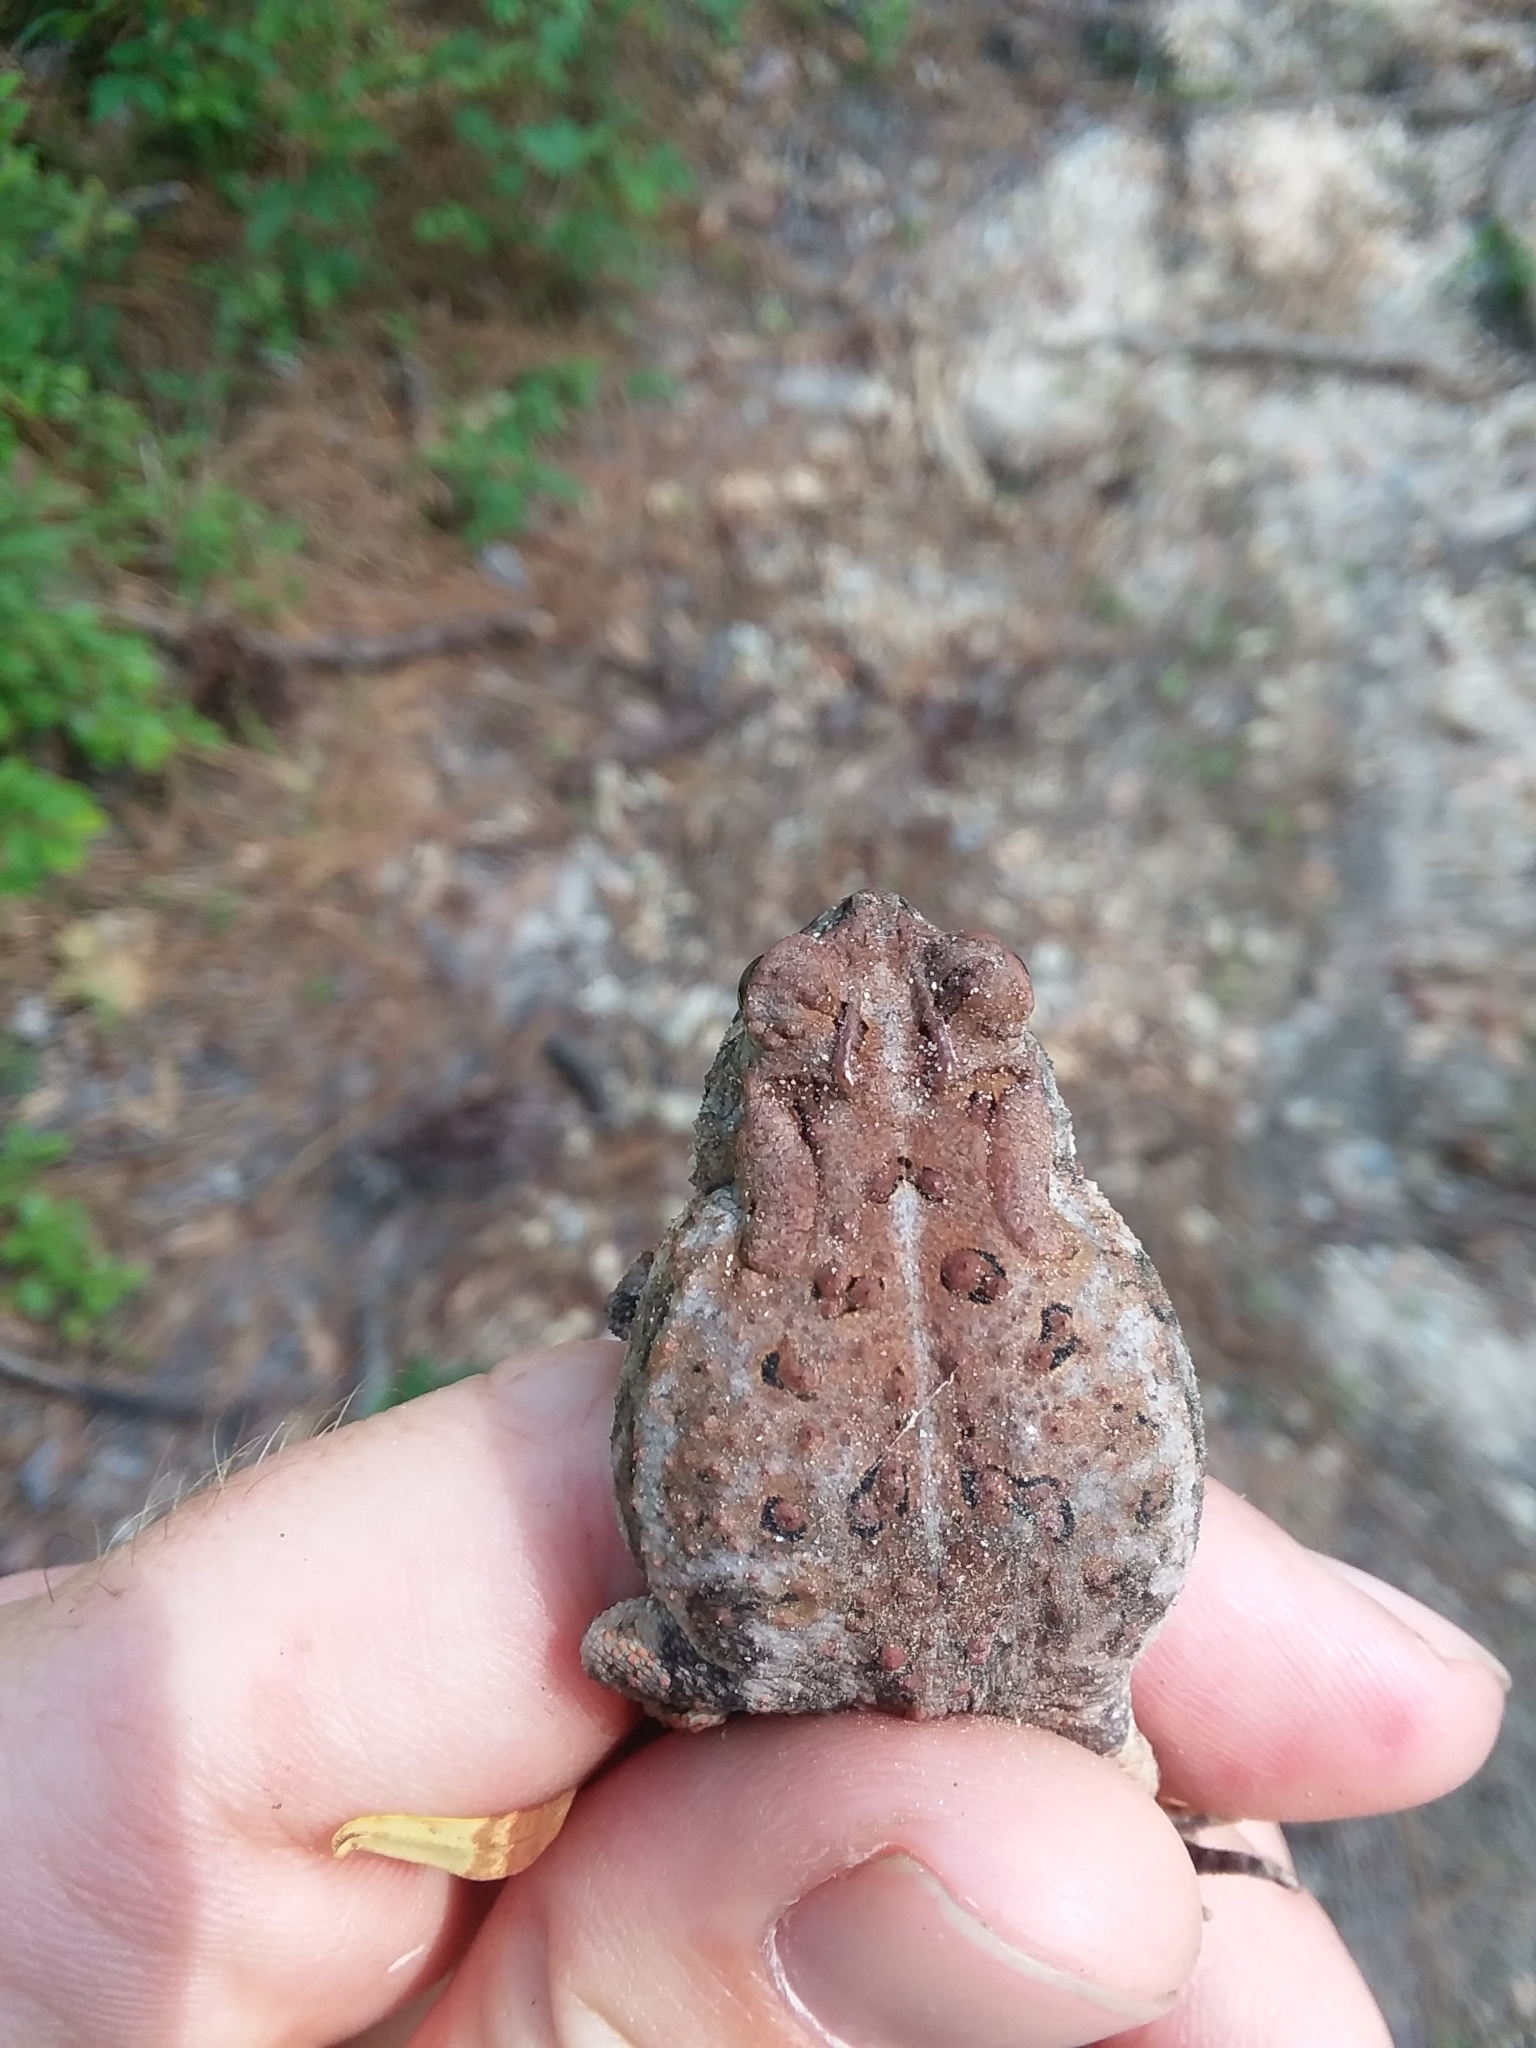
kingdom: Animalia
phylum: Chordata
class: Amphibia
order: Anura
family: Bufonidae
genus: Anaxyrus
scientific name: Anaxyrus terrestris
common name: Southern toad
